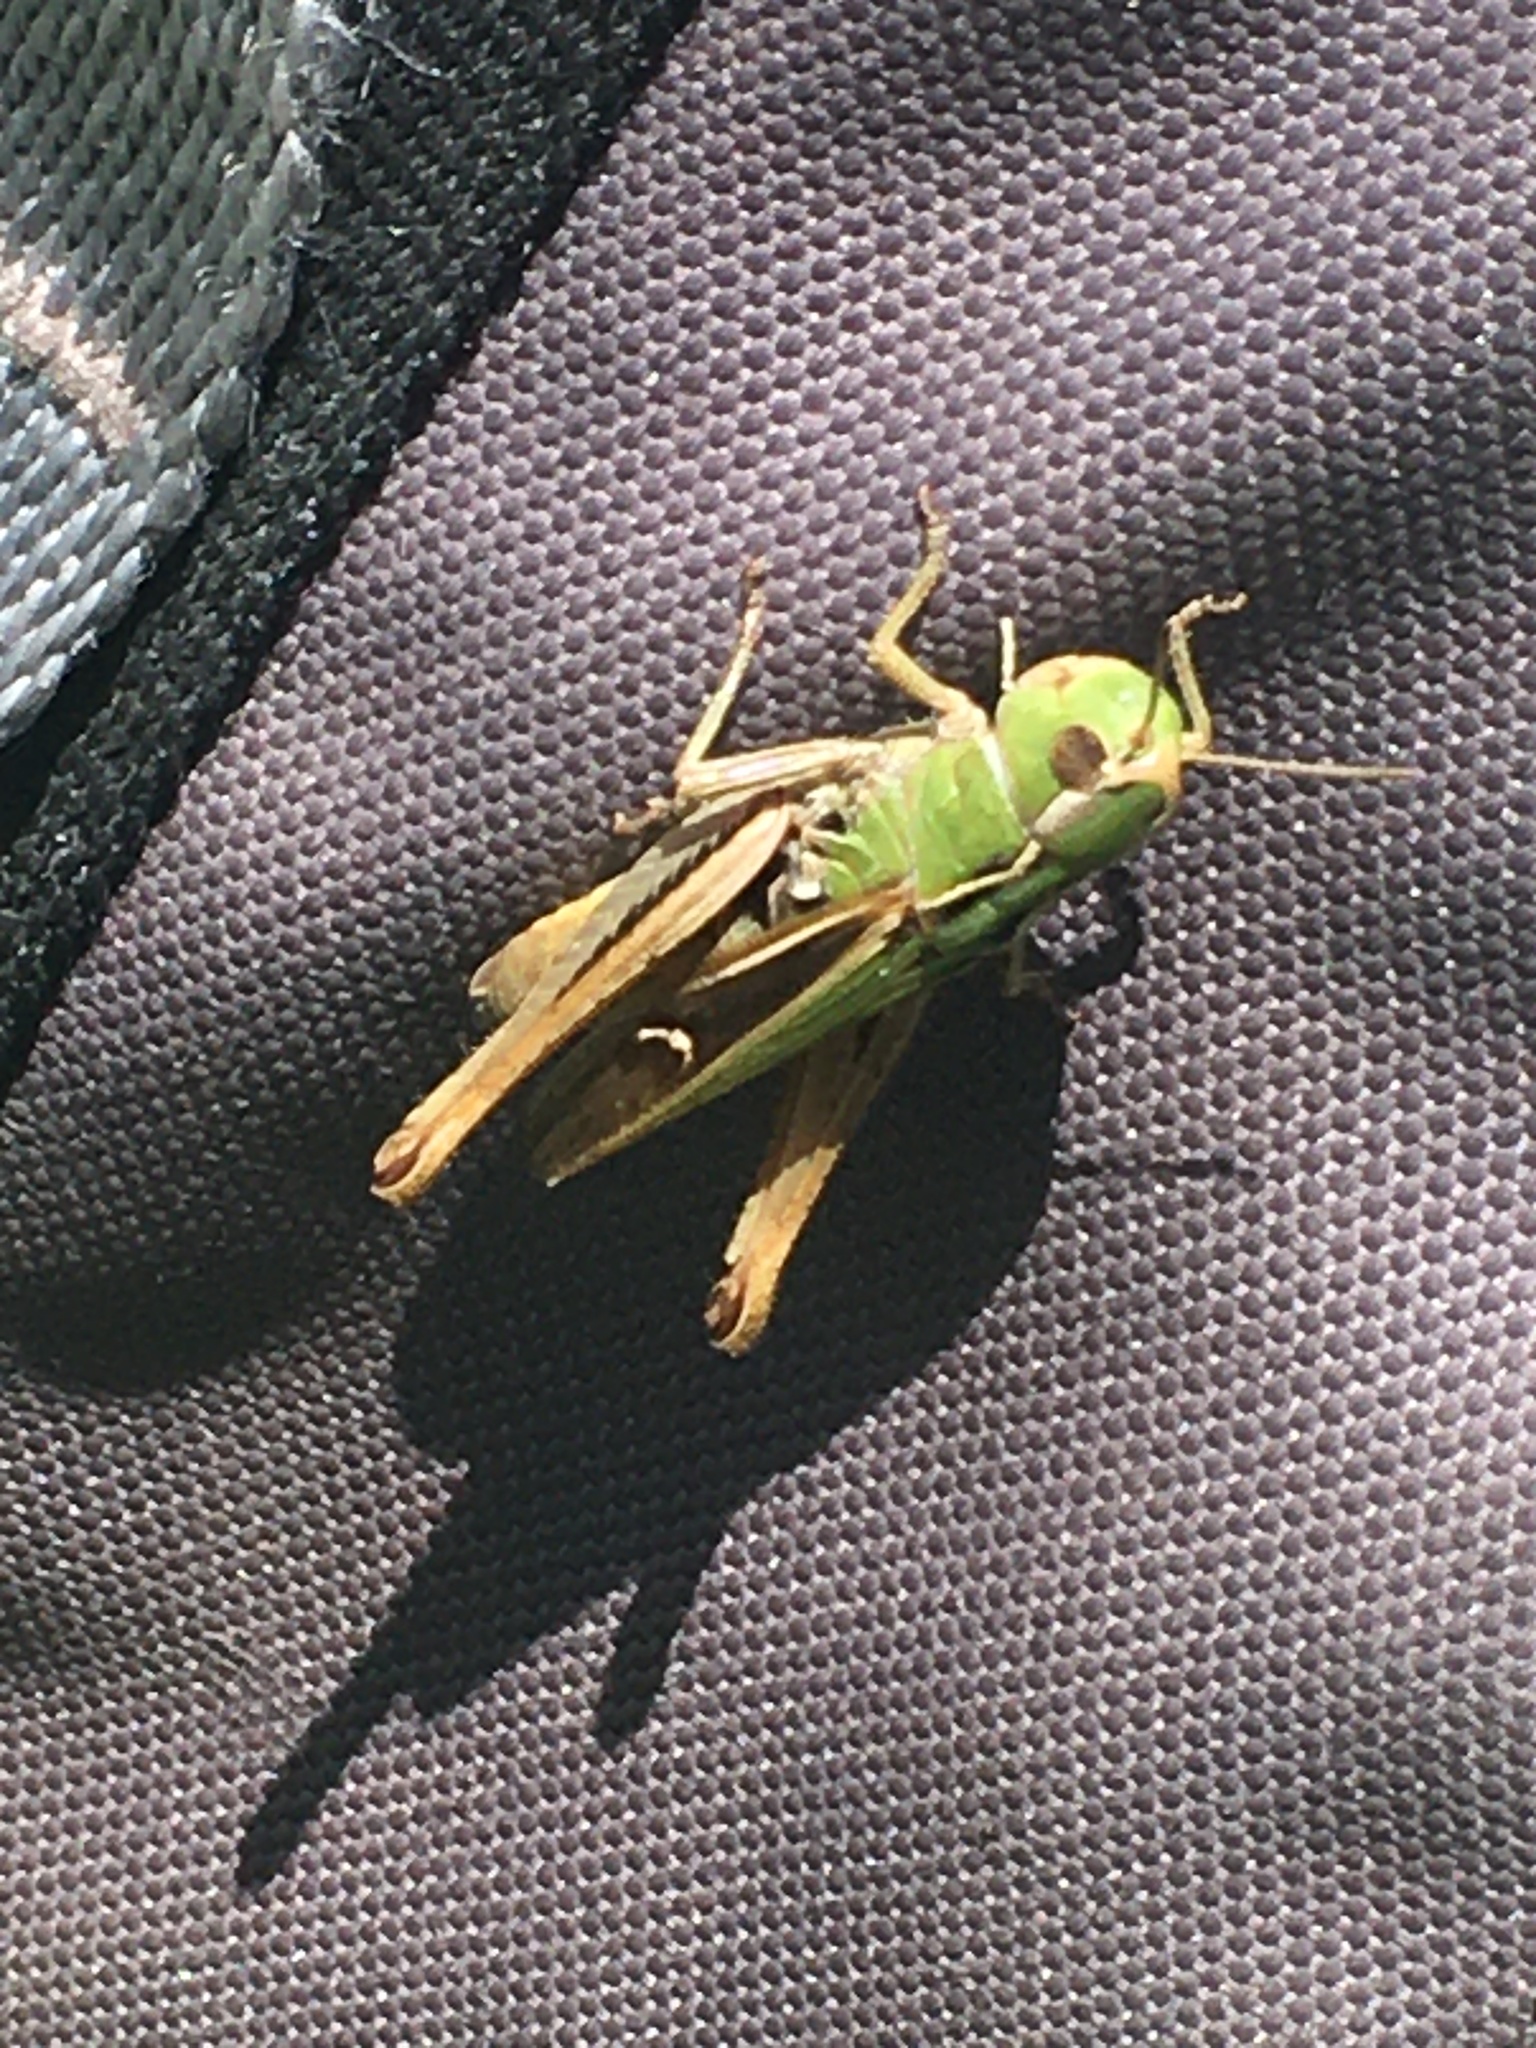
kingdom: Animalia
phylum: Arthropoda
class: Insecta
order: Orthoptera
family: Acrididae
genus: Stenobothrus
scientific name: Stenobothrus lineatus
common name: Stripe-winged grasshopper
